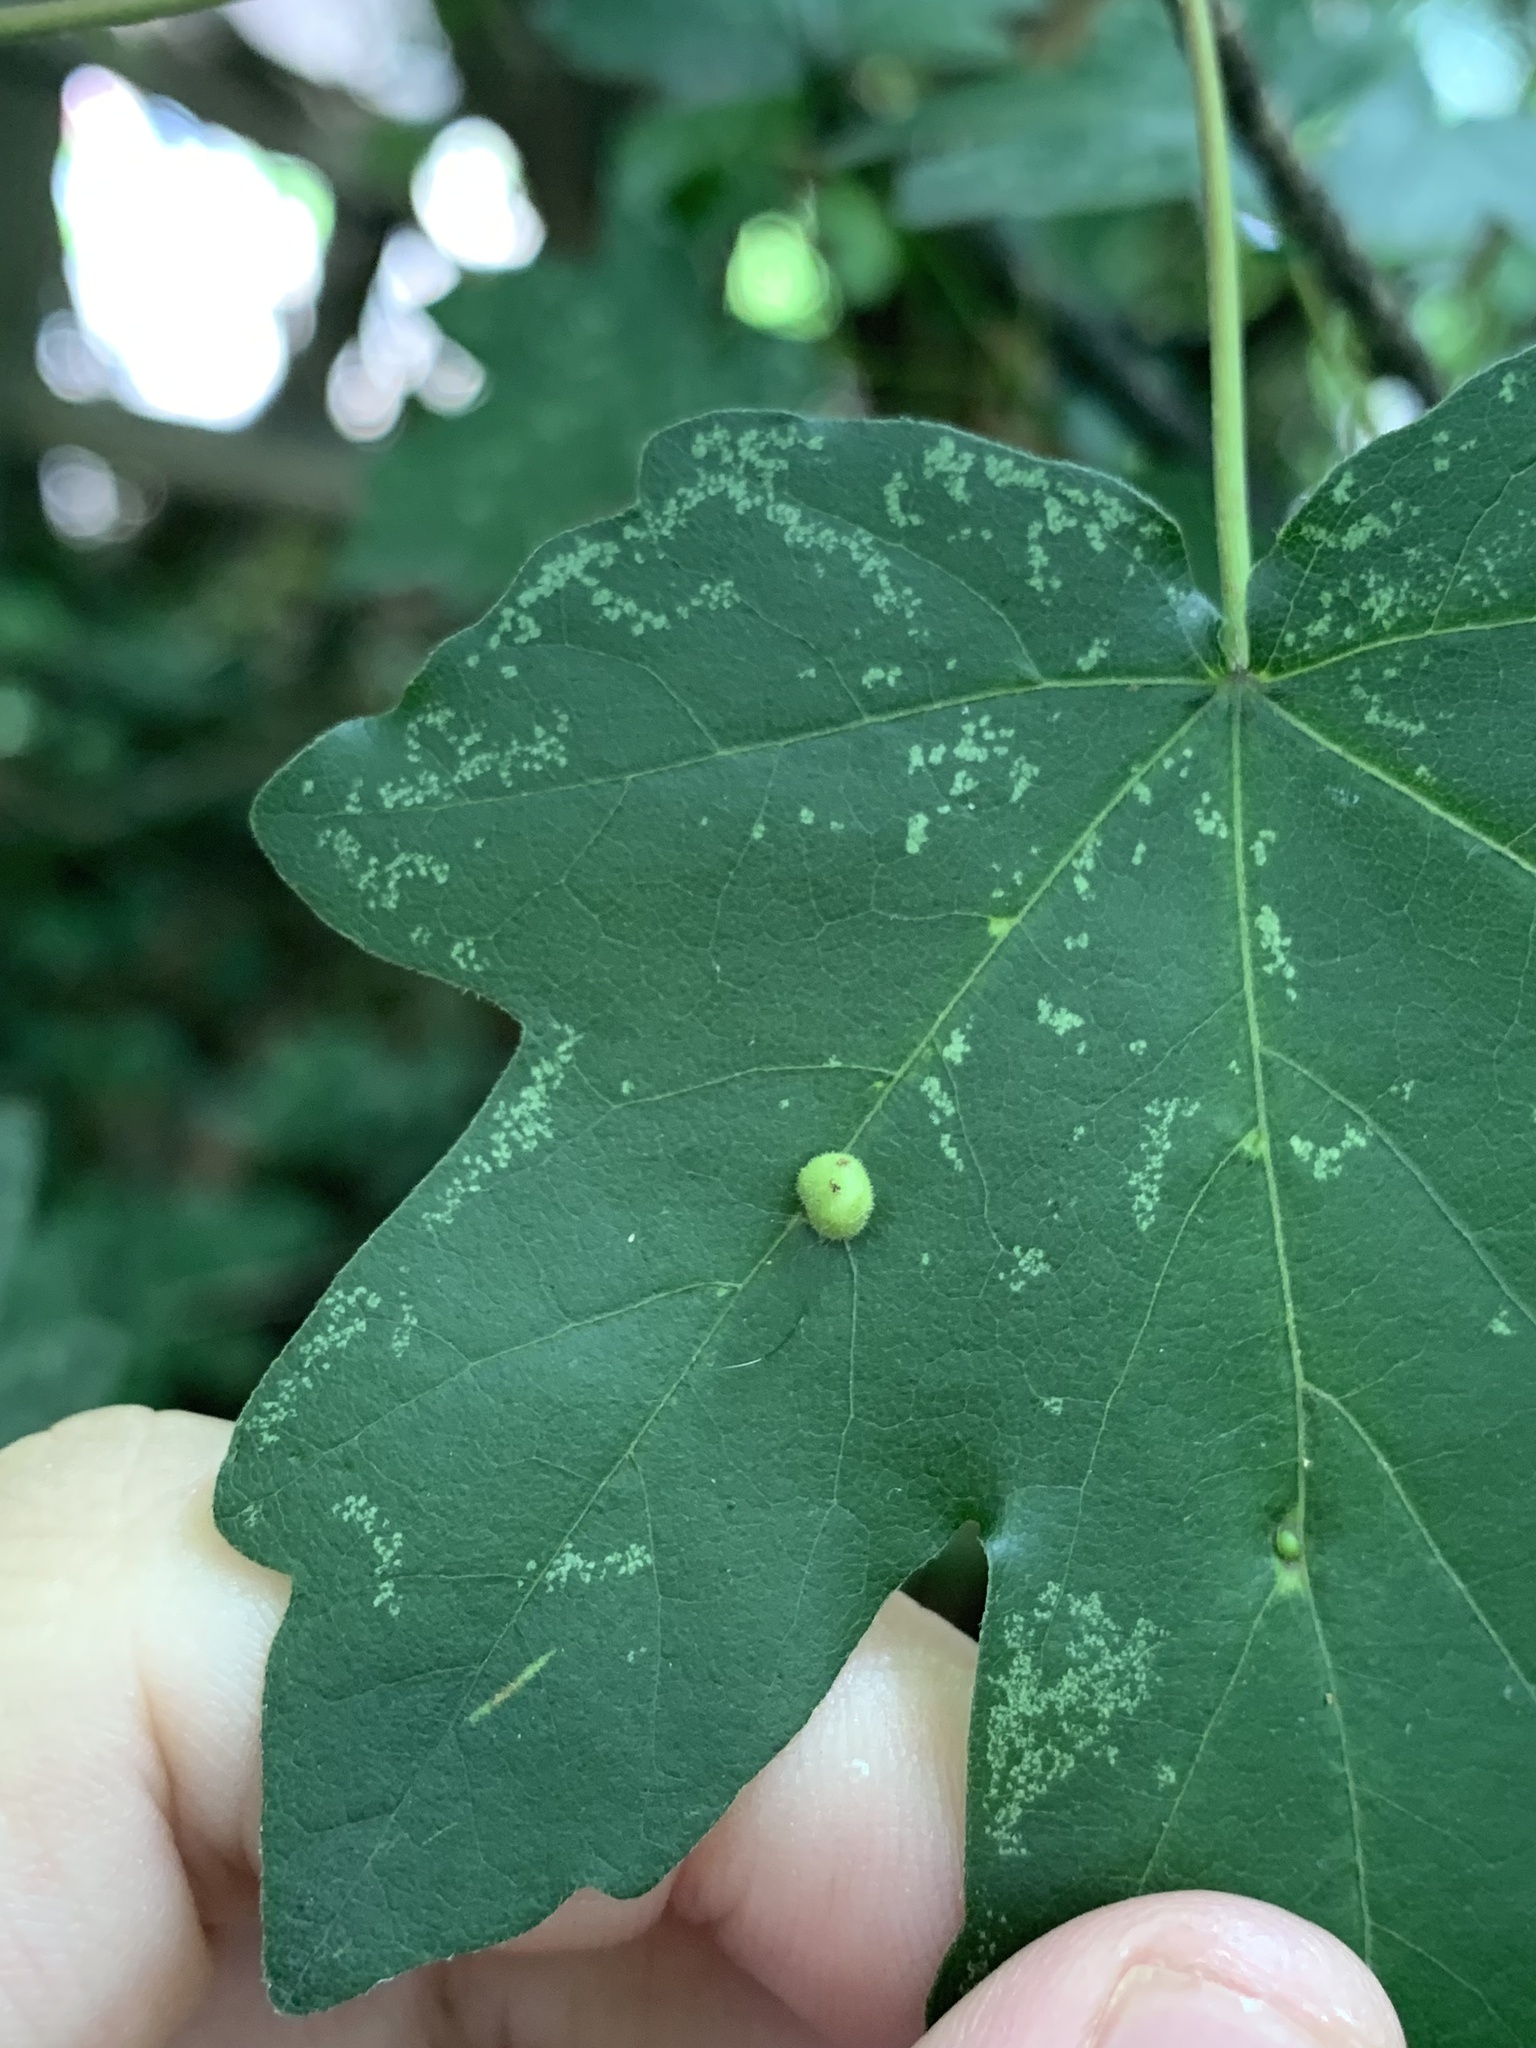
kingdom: Animalia
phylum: Arthropoda
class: Arachnida
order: Trombidiformes
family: Eriophyidae
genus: Aceria
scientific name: Aceria macrochelus
